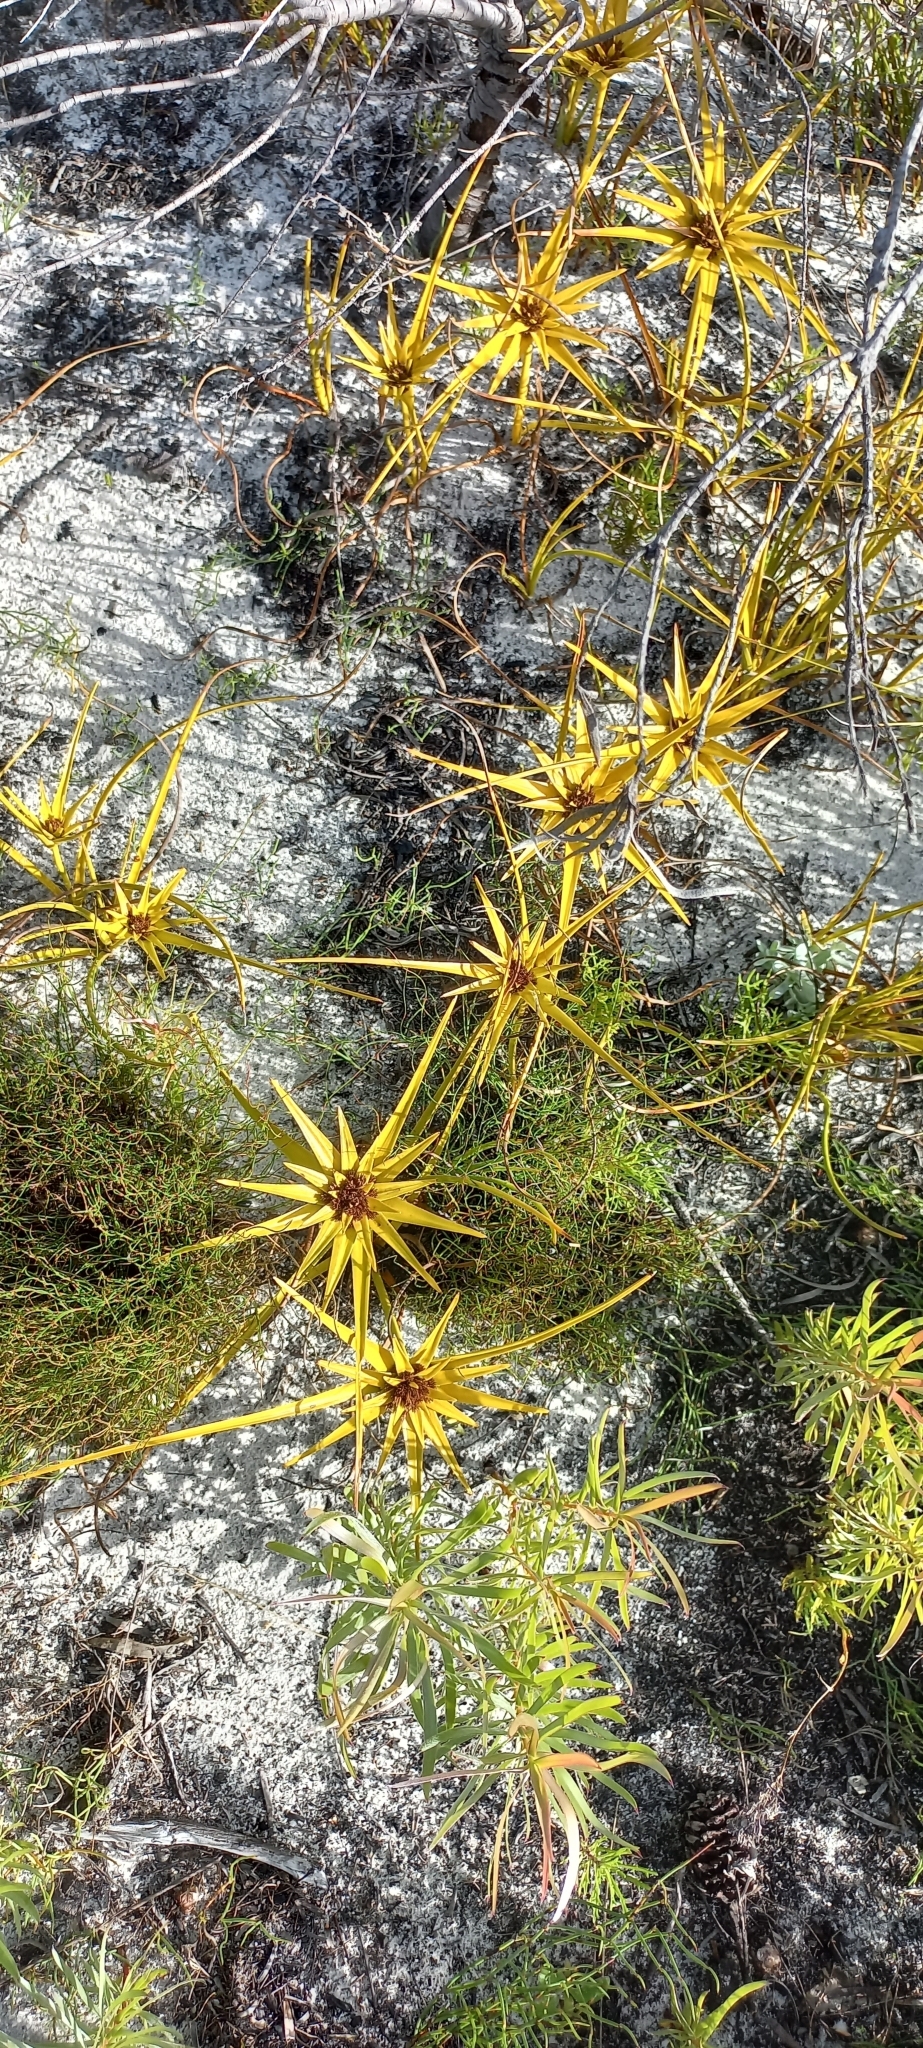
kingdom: Plantae
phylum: Tracheophyta
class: Liliopsida
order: Poales
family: Cyperaceae
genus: Ficinia
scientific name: Ficinia radiata
